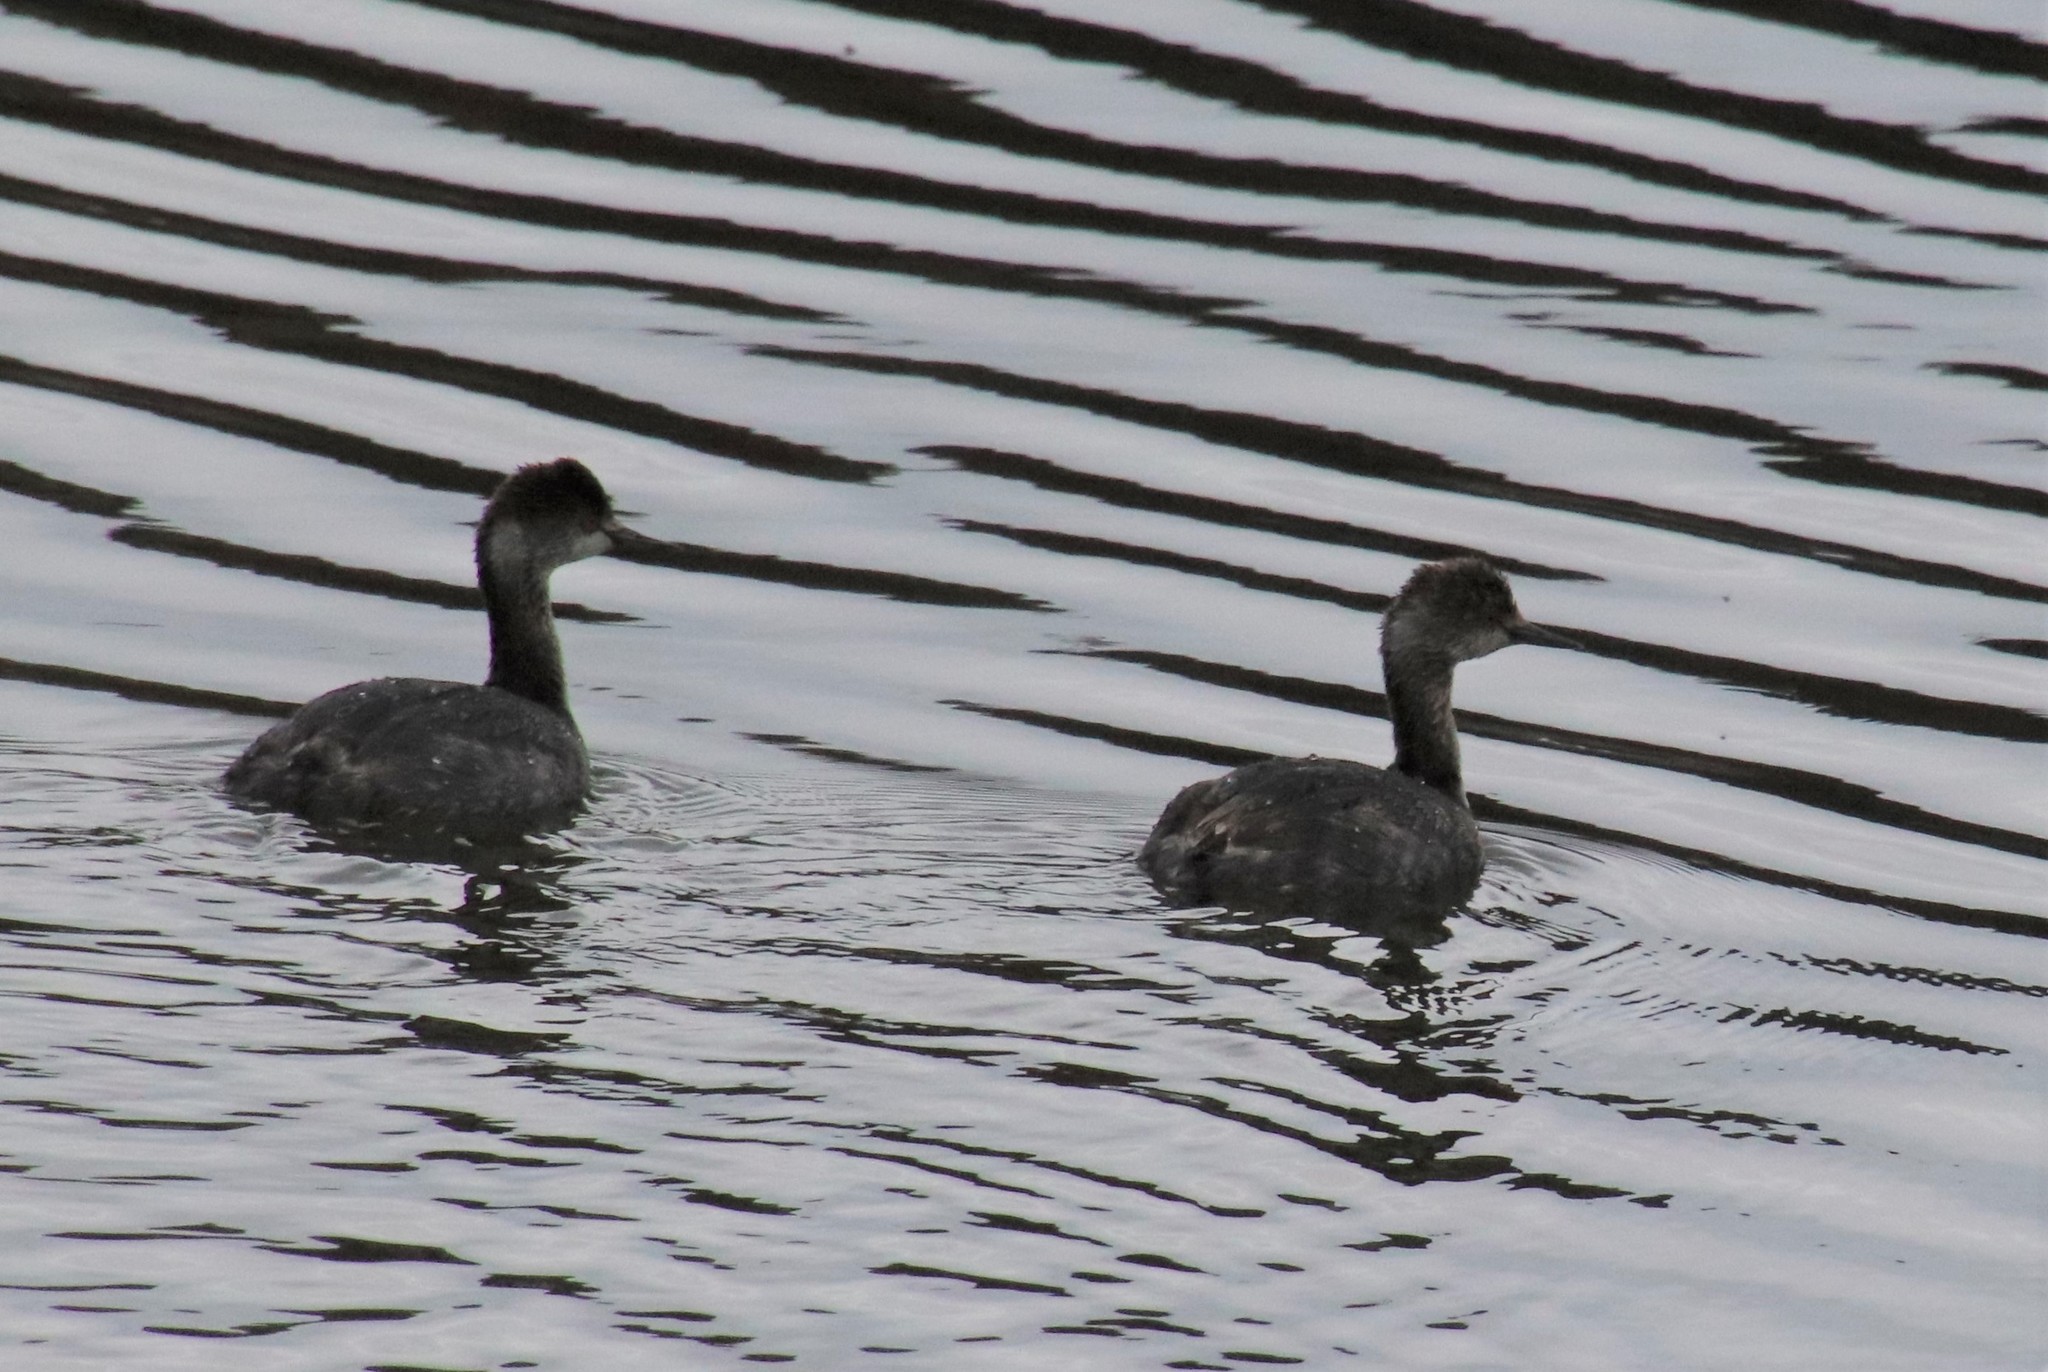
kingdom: Animalia
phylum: Chordata
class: Aves
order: Podicipediformes
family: Podicipedidae
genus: Podiceps
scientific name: Podiceps nigricollis
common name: Black-necked grebe
